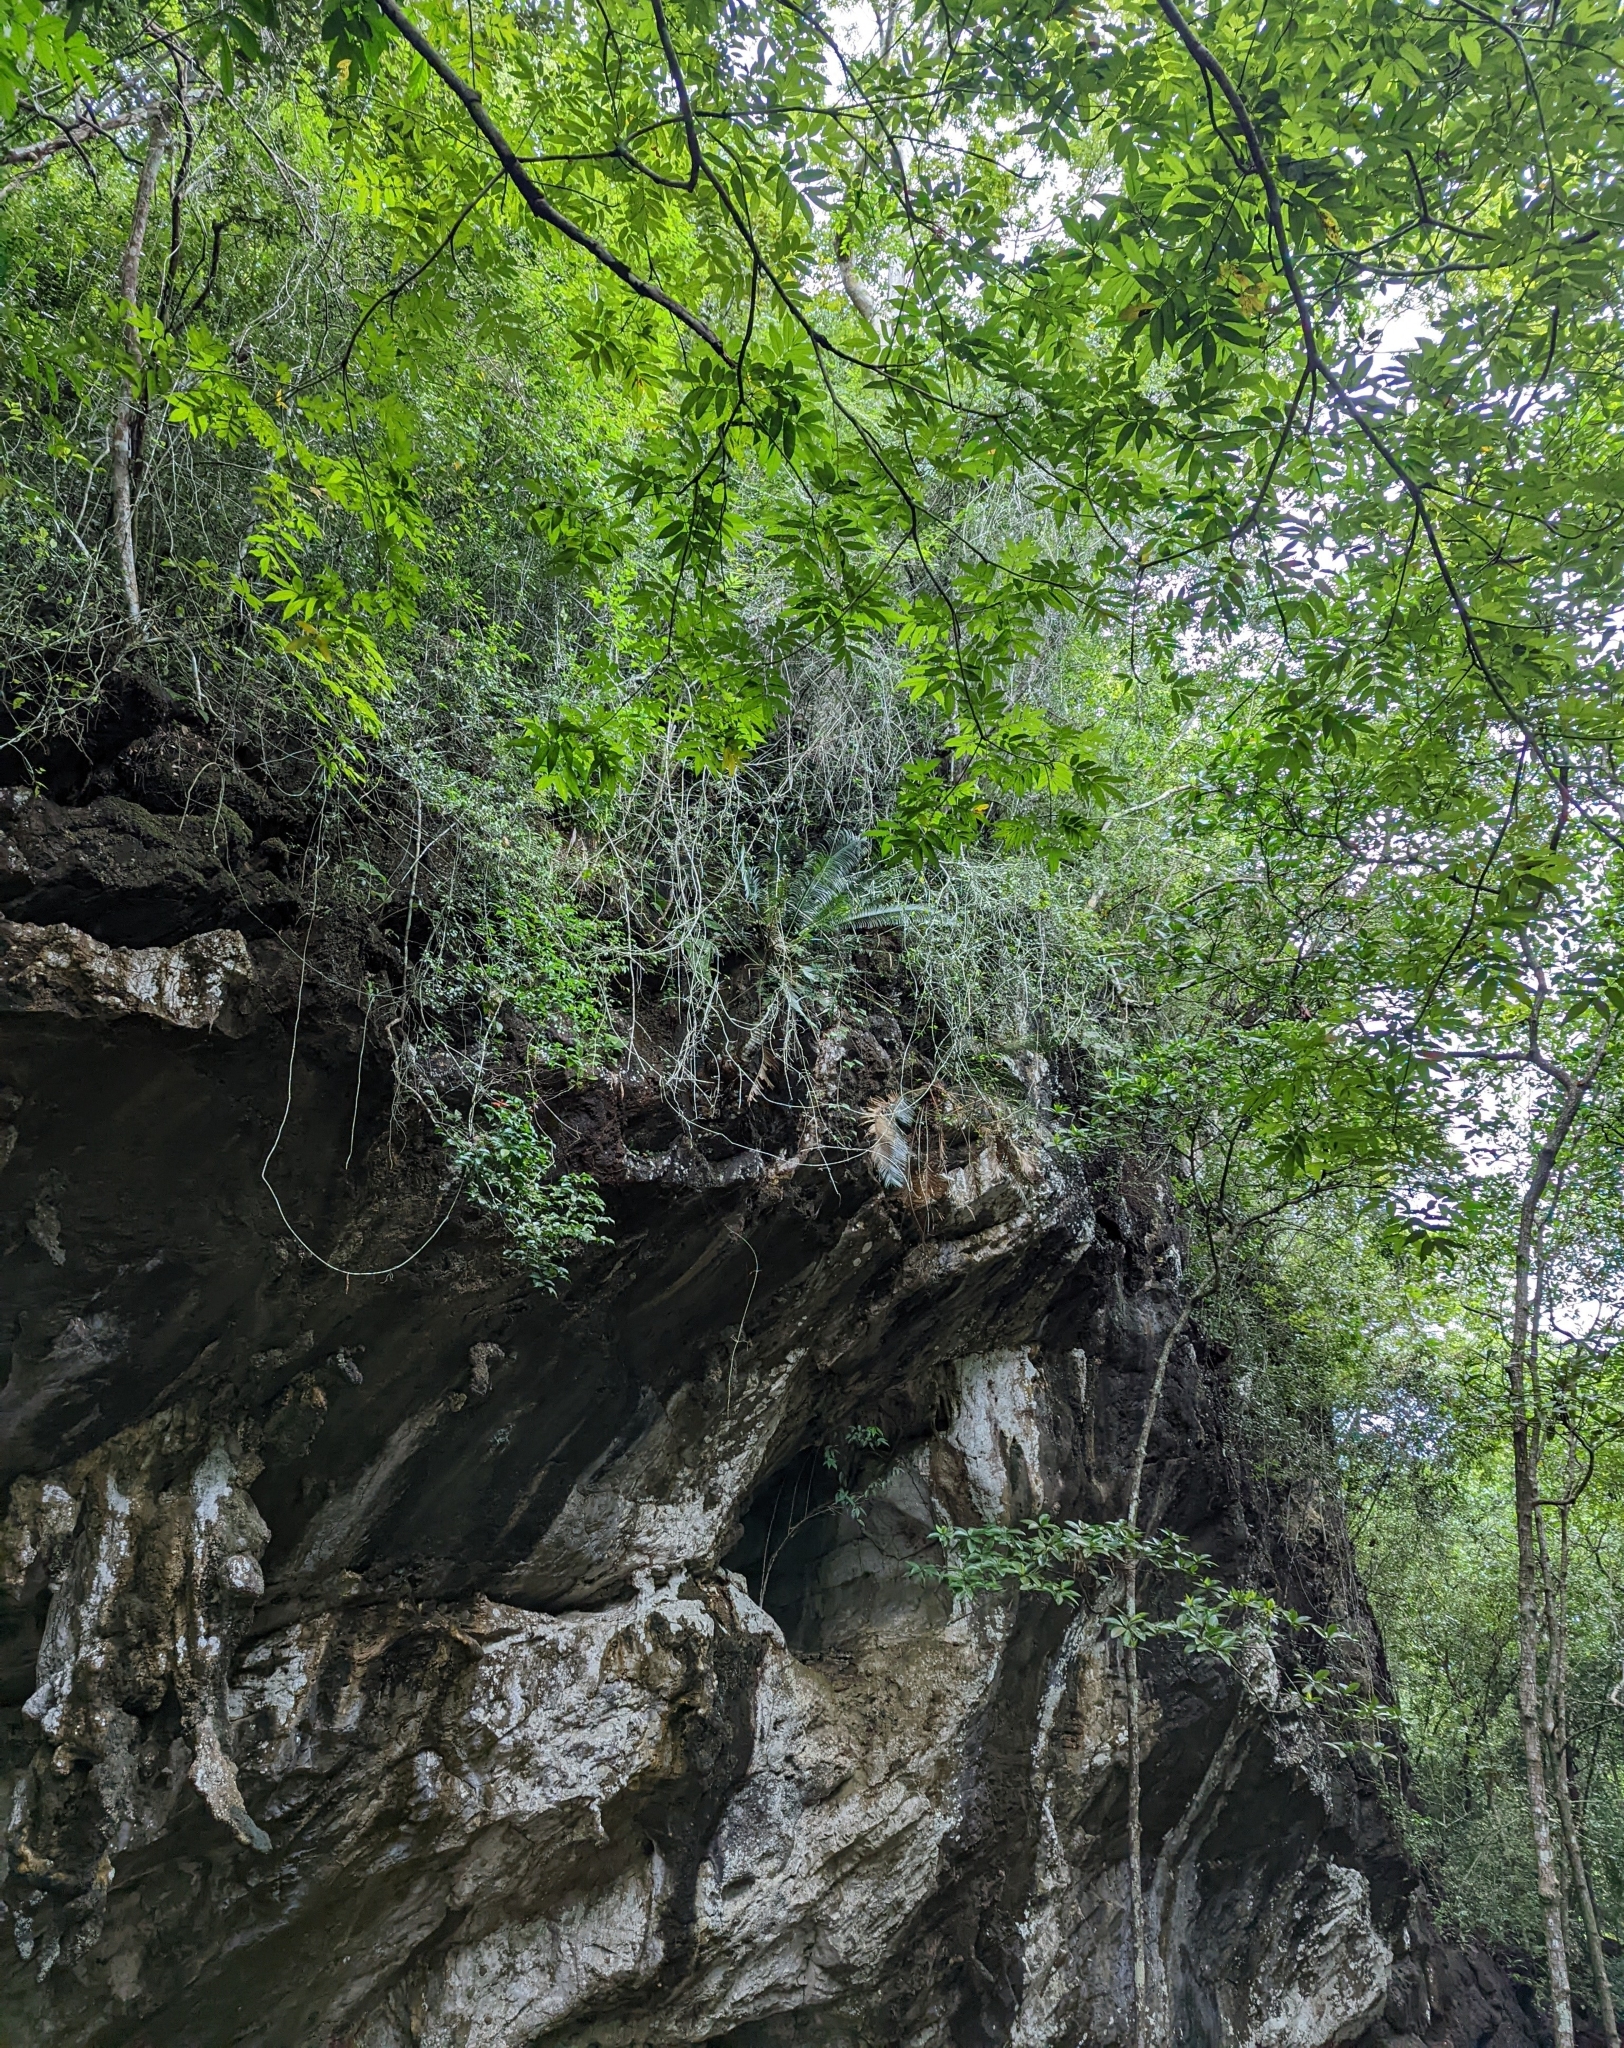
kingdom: Plantae
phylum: Tracheophyta
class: Cycadopsida
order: Cycadales
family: Cycadaceae
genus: Cycas
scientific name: Cycas clivicola
